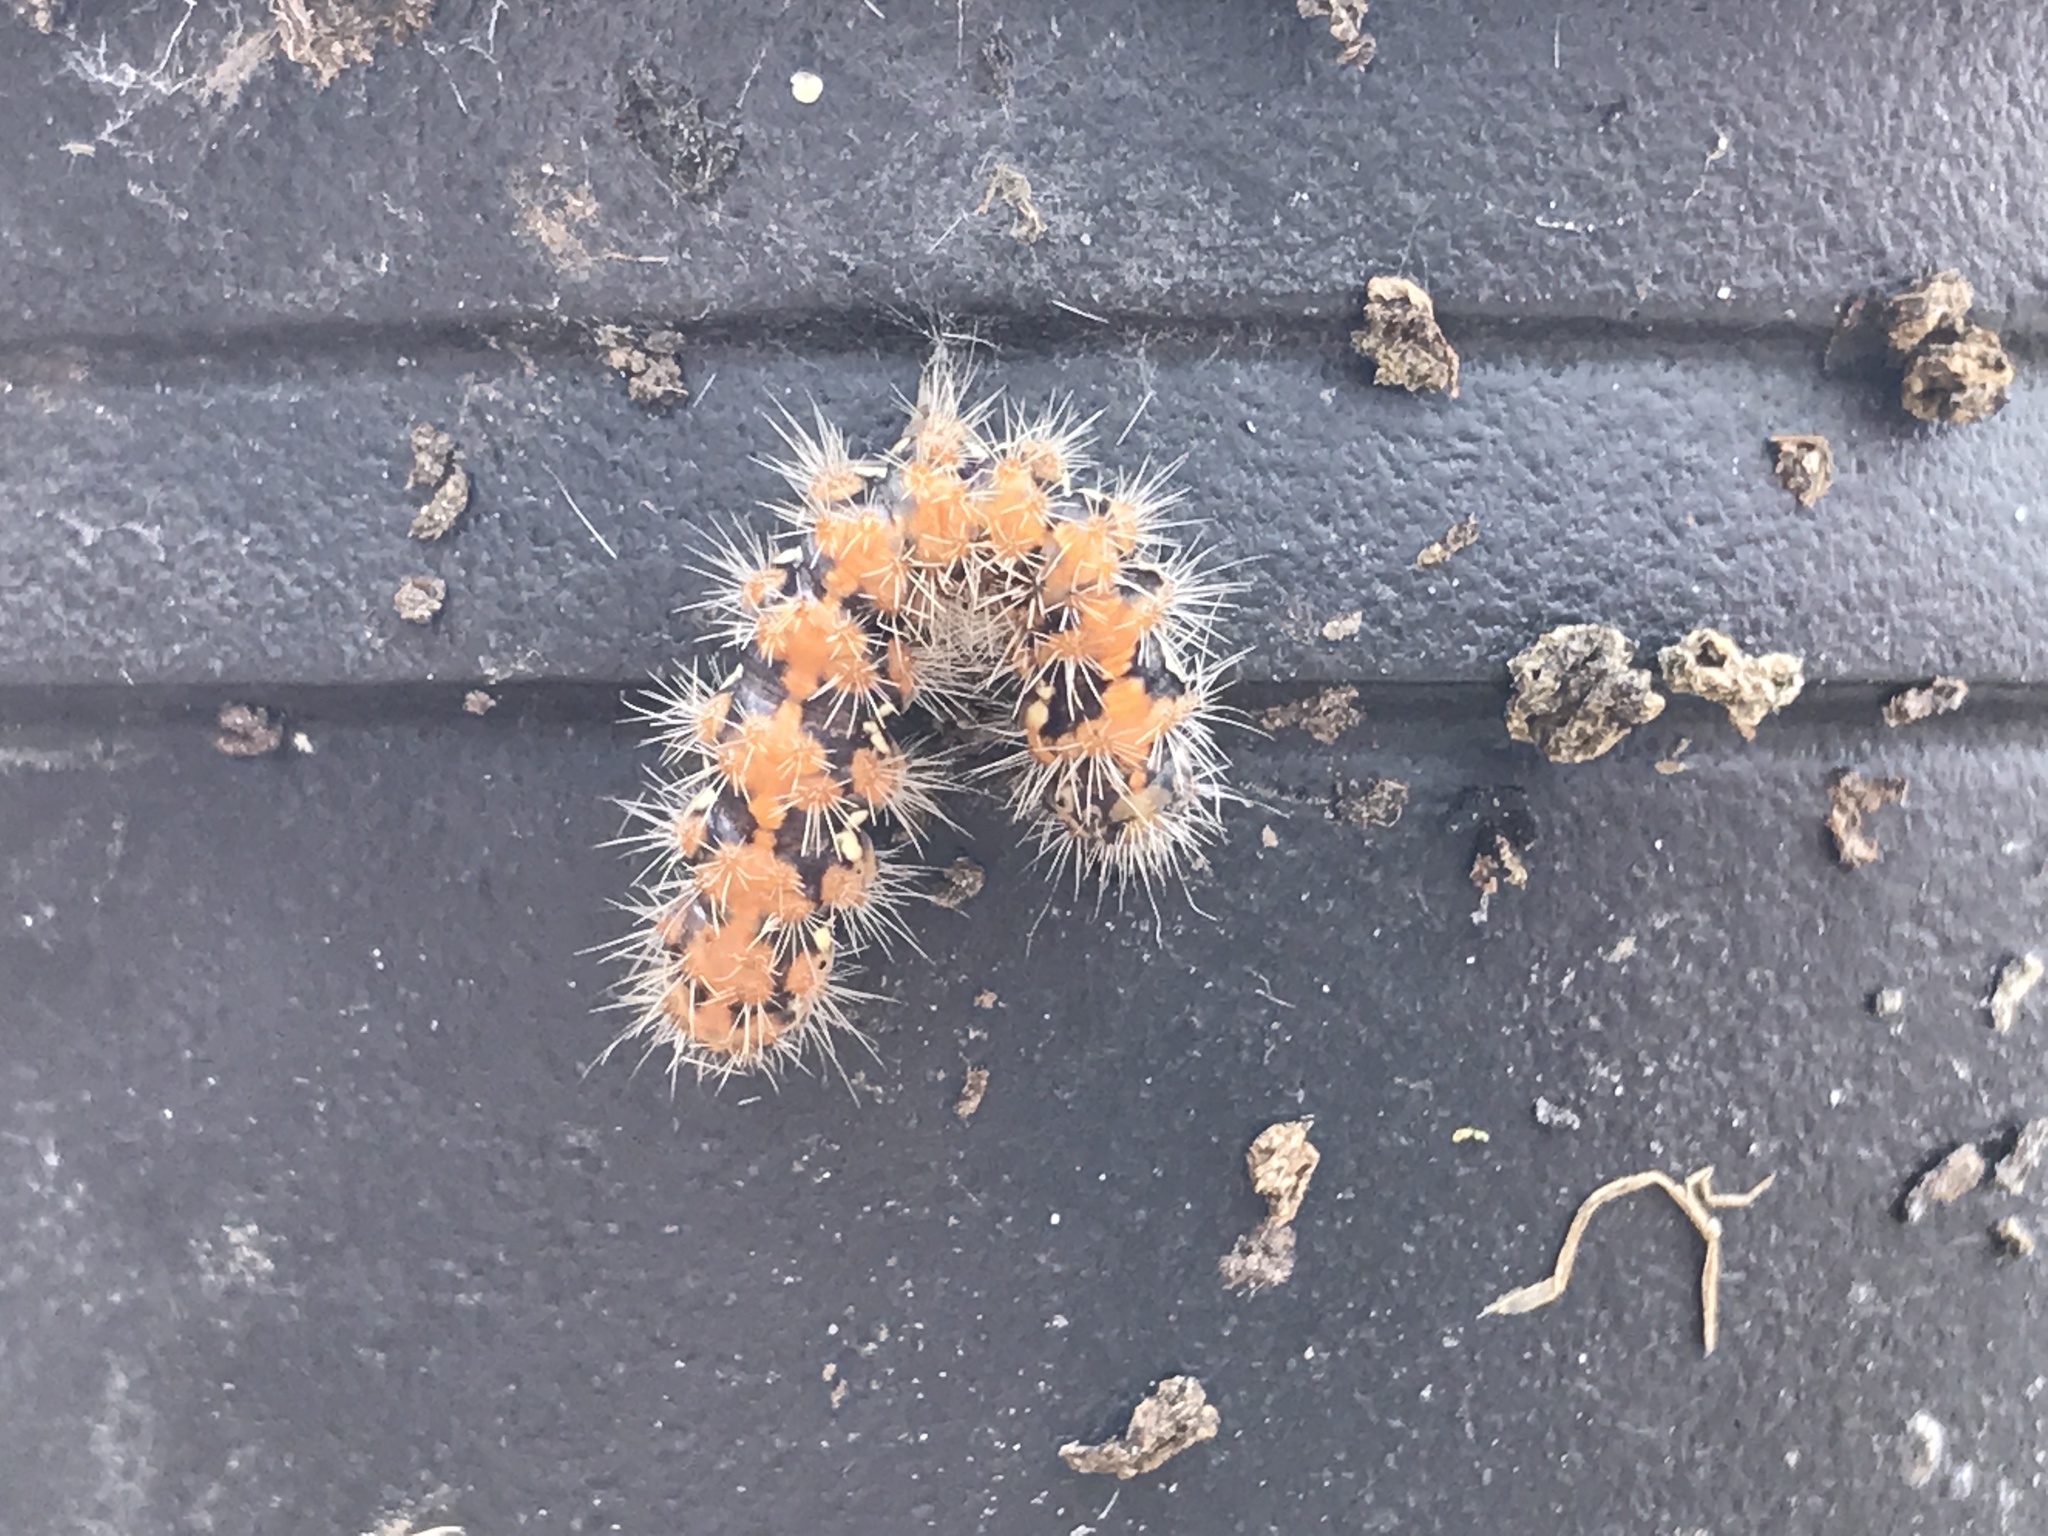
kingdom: Animalia
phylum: Arthropoda
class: Insecta
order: Lepidoptera
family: Erebidae
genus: Euplagia
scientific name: Euplagia quadripunctaria
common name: Jersey tiger
